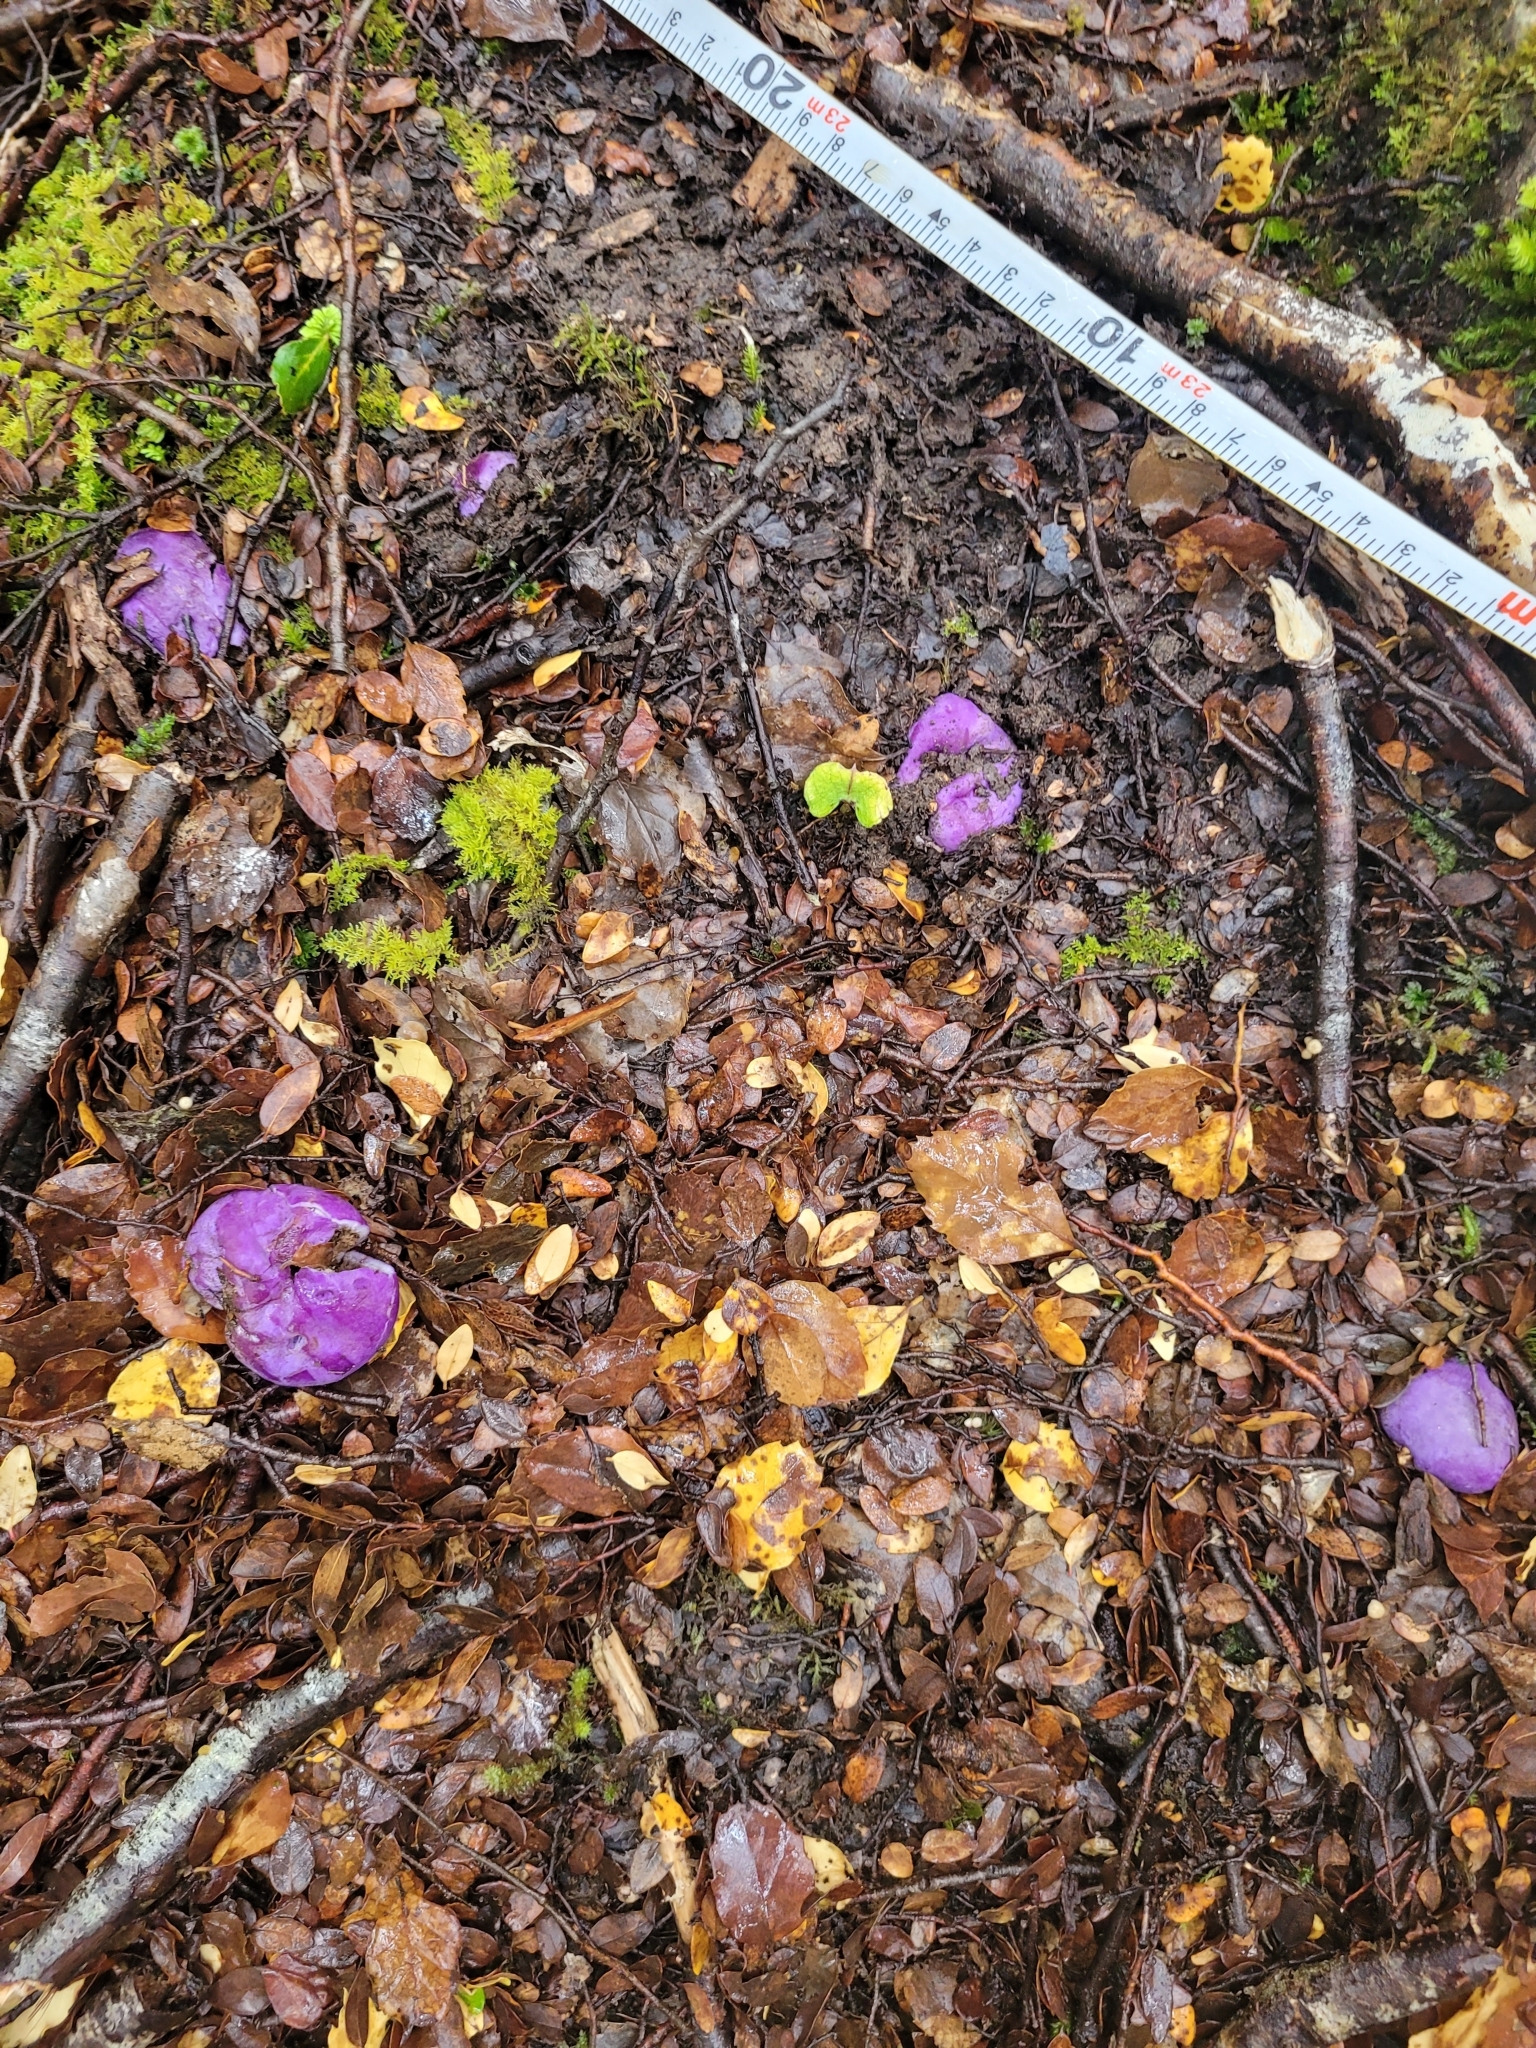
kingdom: Fungi
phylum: Basidiomycota
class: Agaricomycetes
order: Hysterangiales
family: Gallaceaceae
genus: Gallacea
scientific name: Gallacea scleroderma
